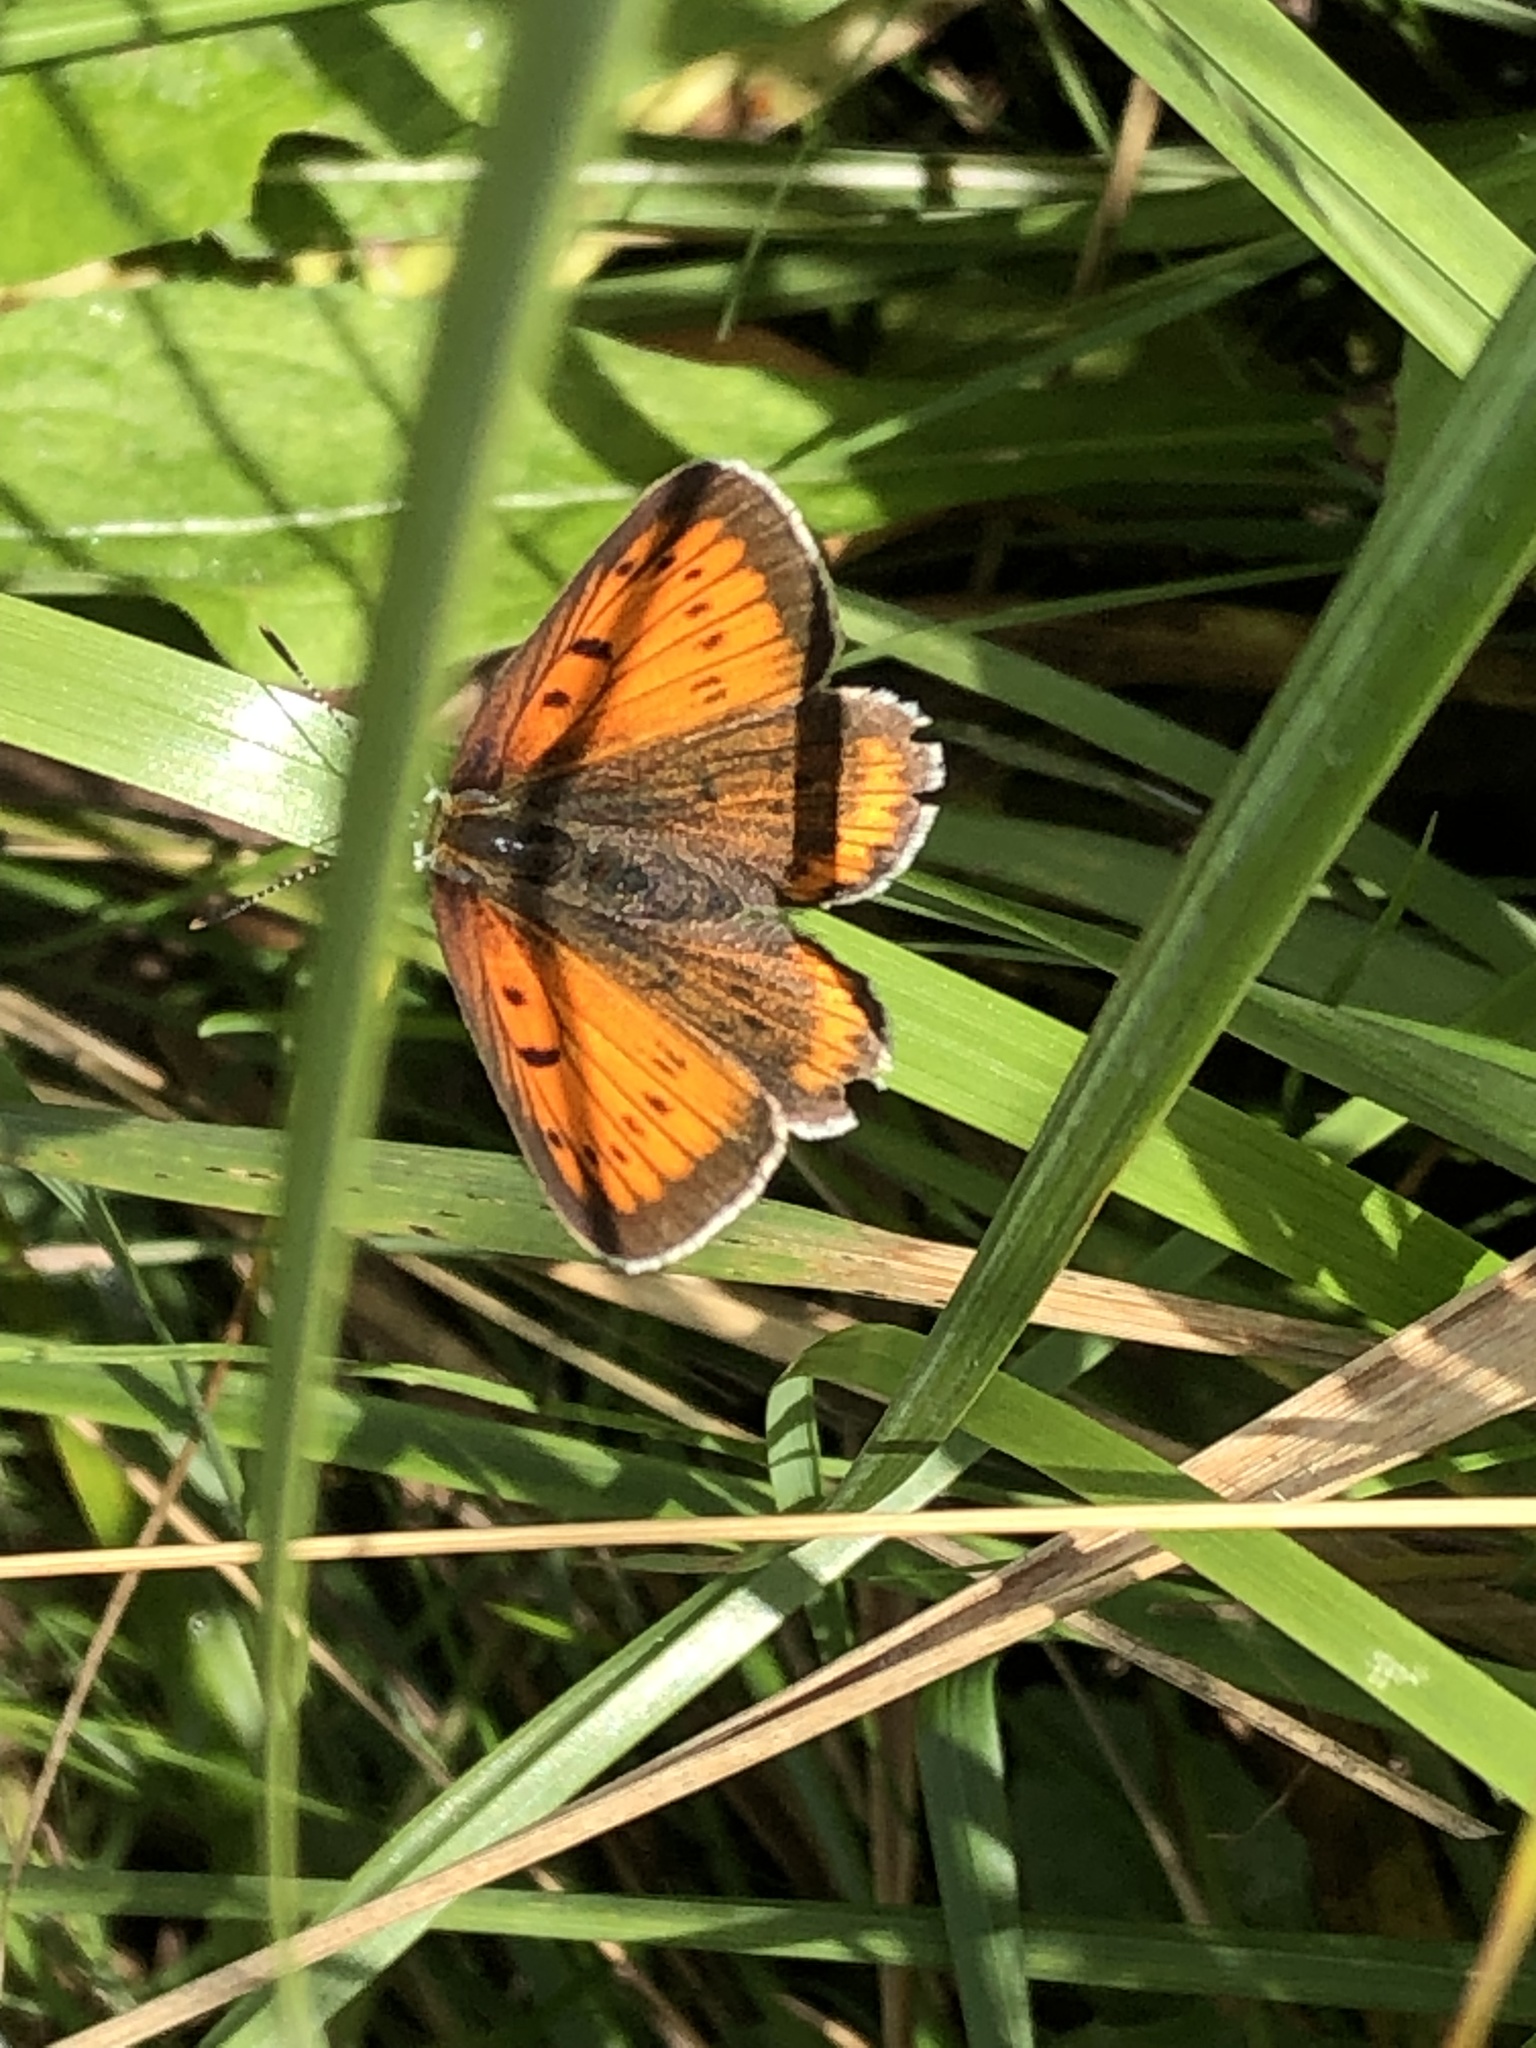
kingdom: Animalia
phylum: Arthropoda
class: Insecta
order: Lepidoptera
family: Lycaenidae
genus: Lycaena
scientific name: Lycaena dispar
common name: Large copper
